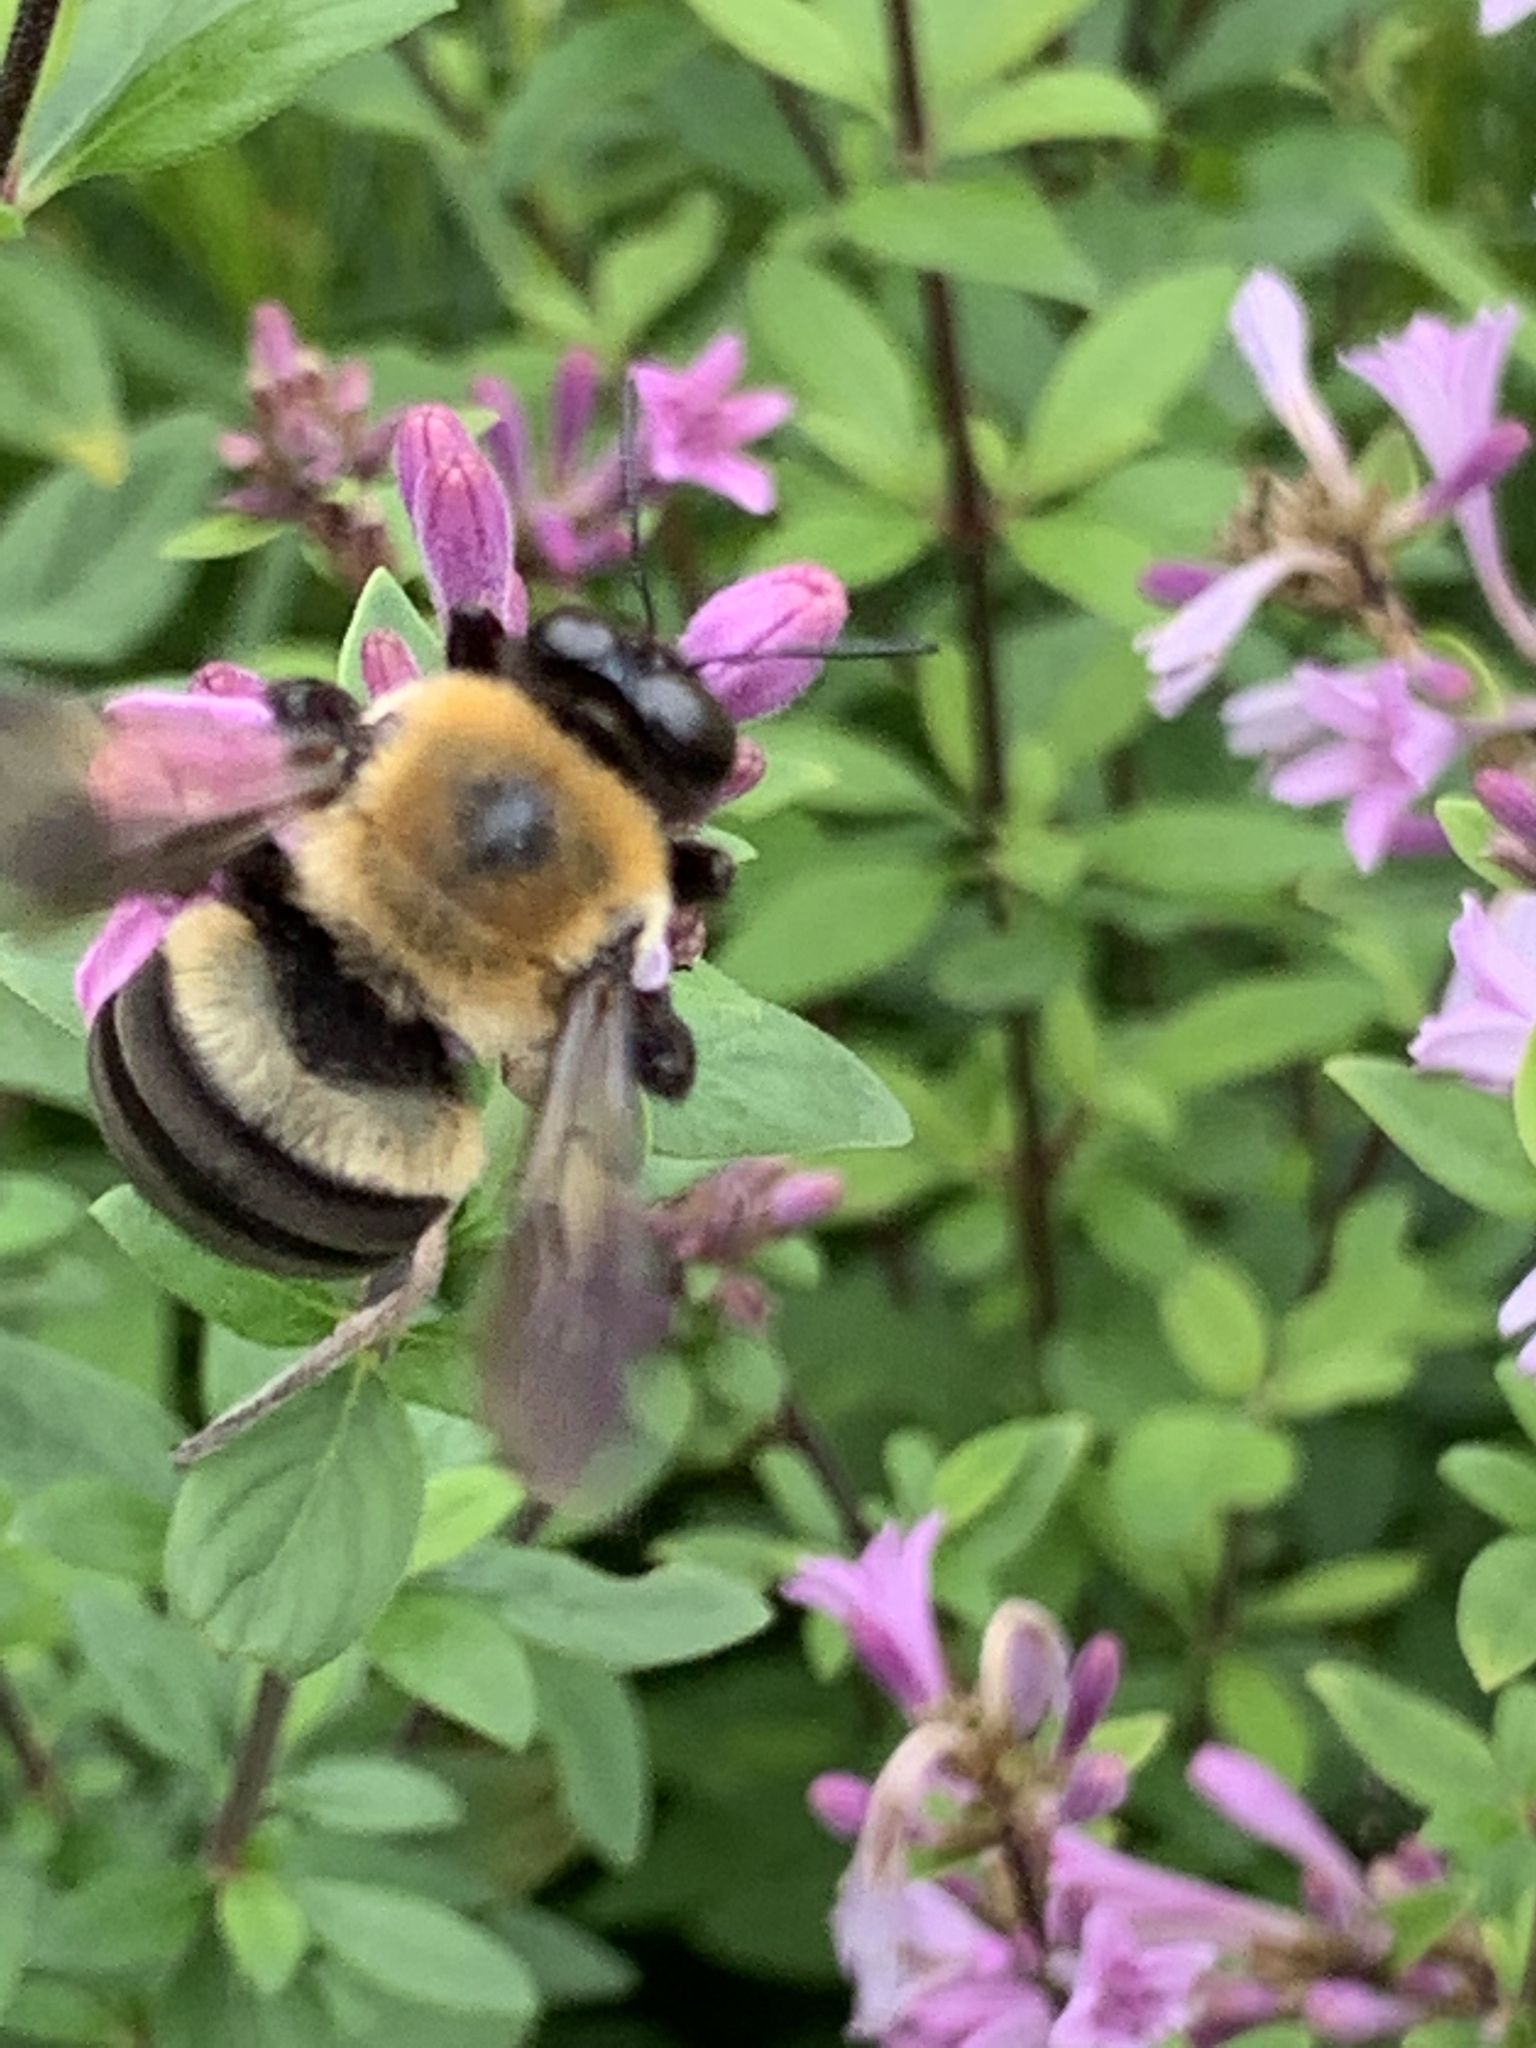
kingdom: Animalia
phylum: Arthropoda
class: Insecta
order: Hymenoptera
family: Apidae
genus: Xylocopa
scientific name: Xylocopa virginica
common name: Carpenter bee
